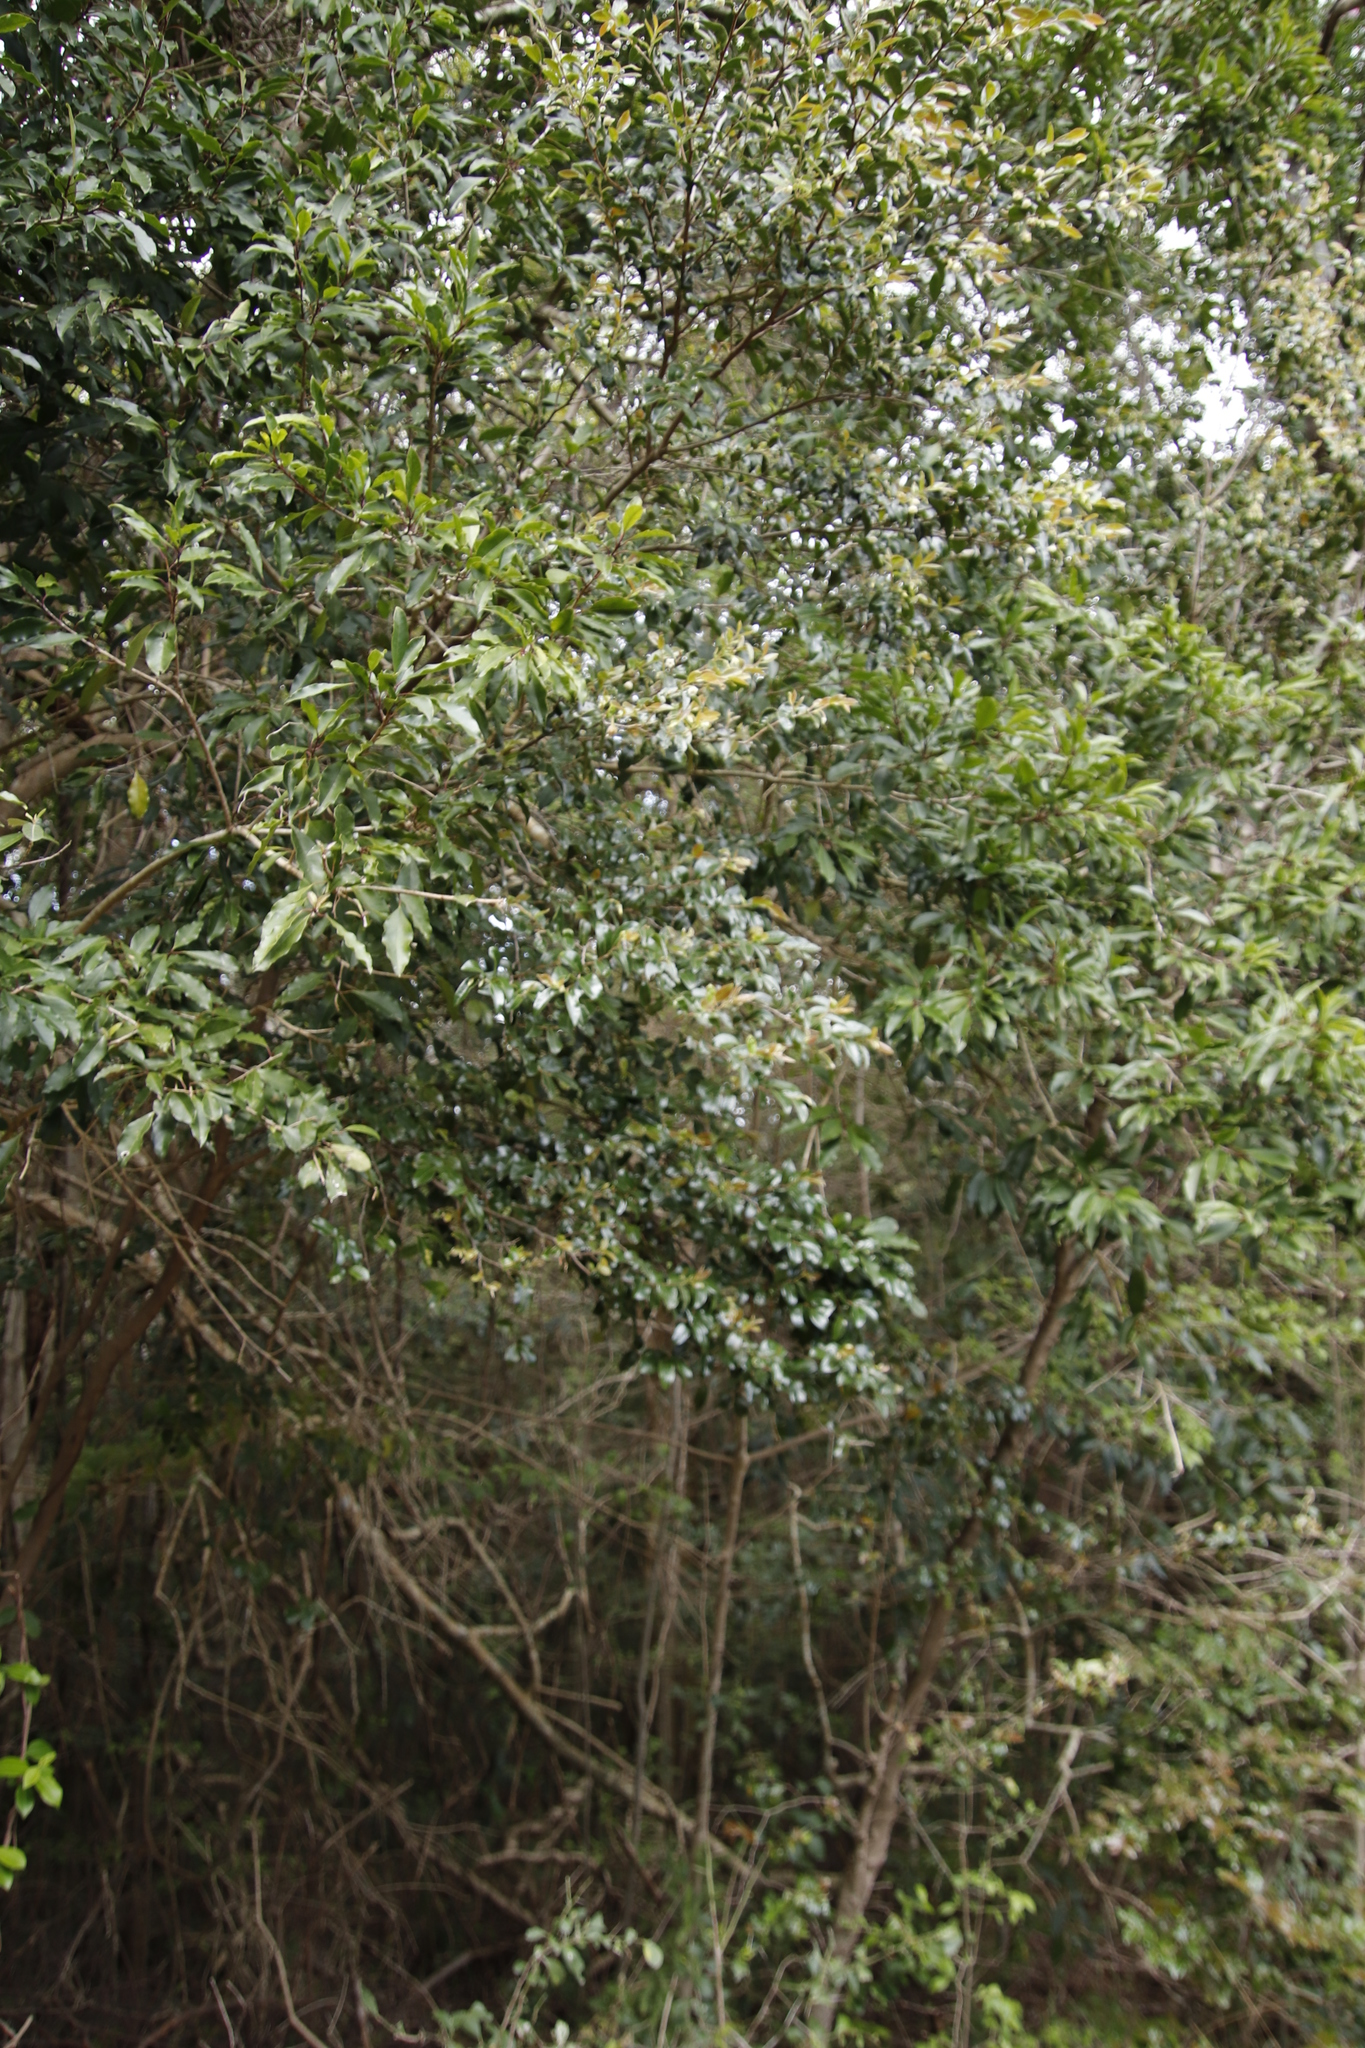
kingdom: Plantae
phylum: Tracheophyta
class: Magnoliopsida
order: Ericales
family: Ebenaceae
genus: Diospyros
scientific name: Diospyros whyteana
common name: Bladder-nut
